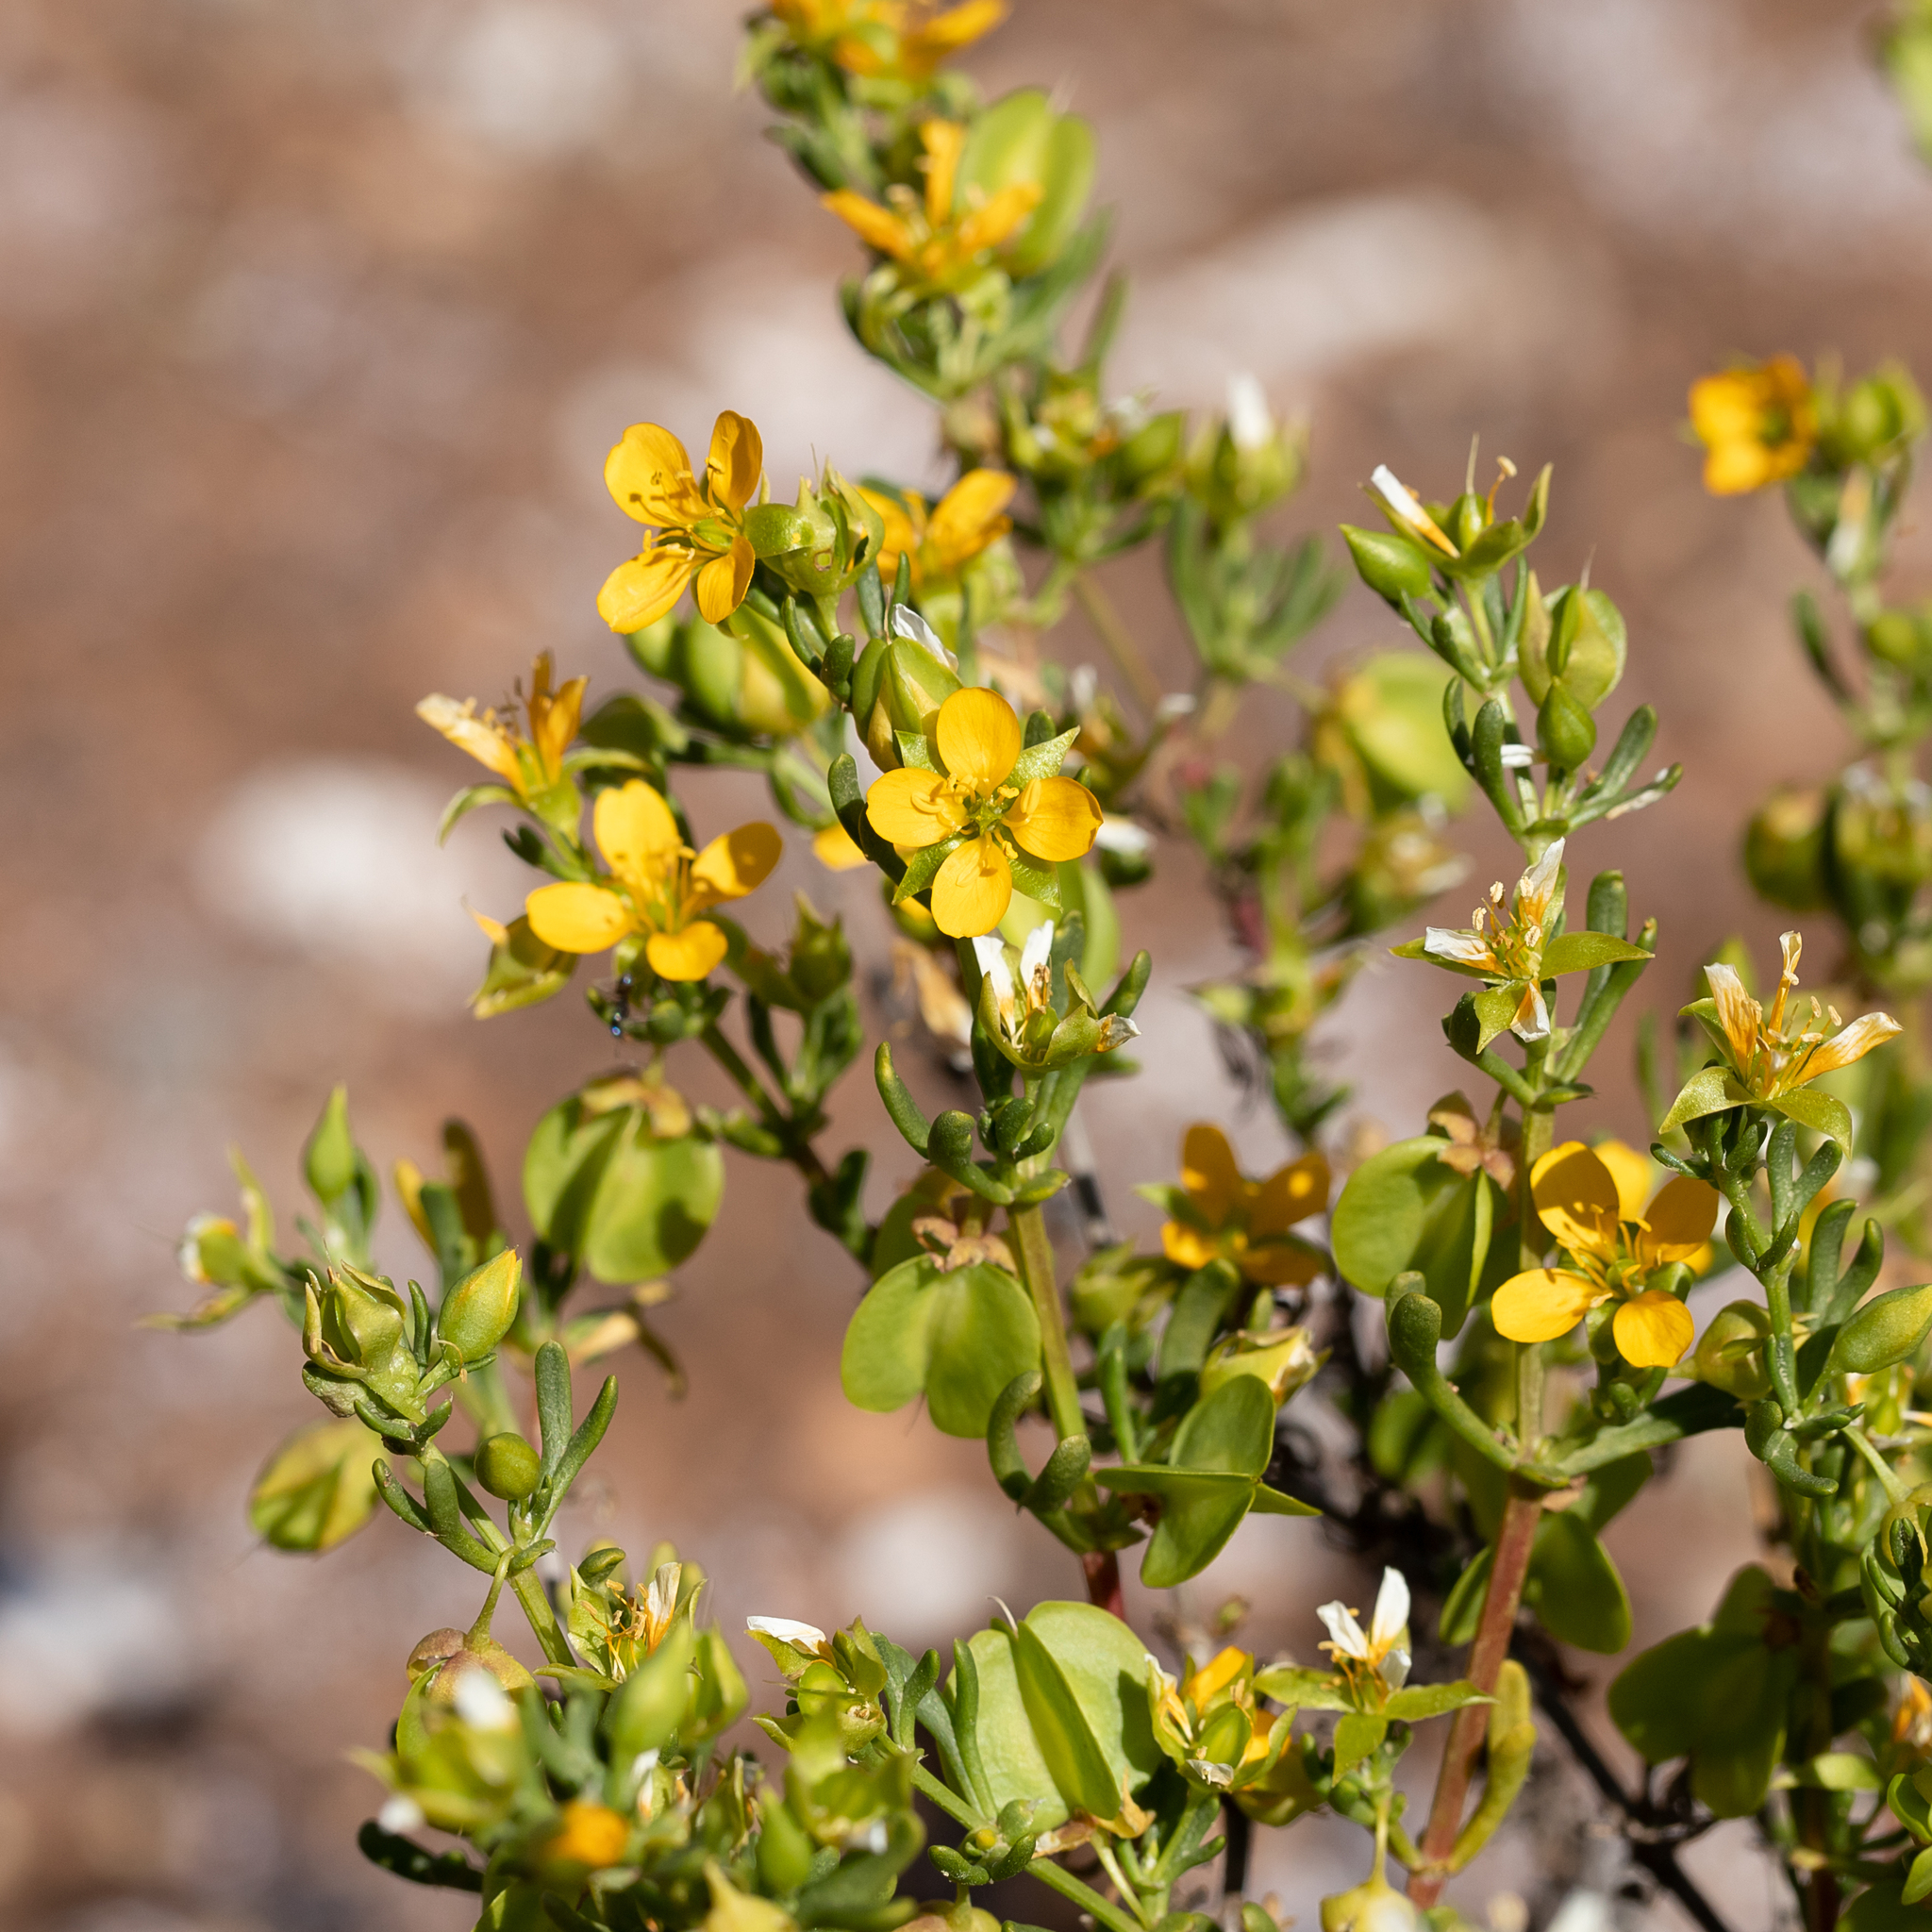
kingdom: Plantae
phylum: Tracheophyta
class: Magnoliopsida
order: Zygophyllales
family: Zygophyllaceae
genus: Roepera
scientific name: Roepera aurantiaca
